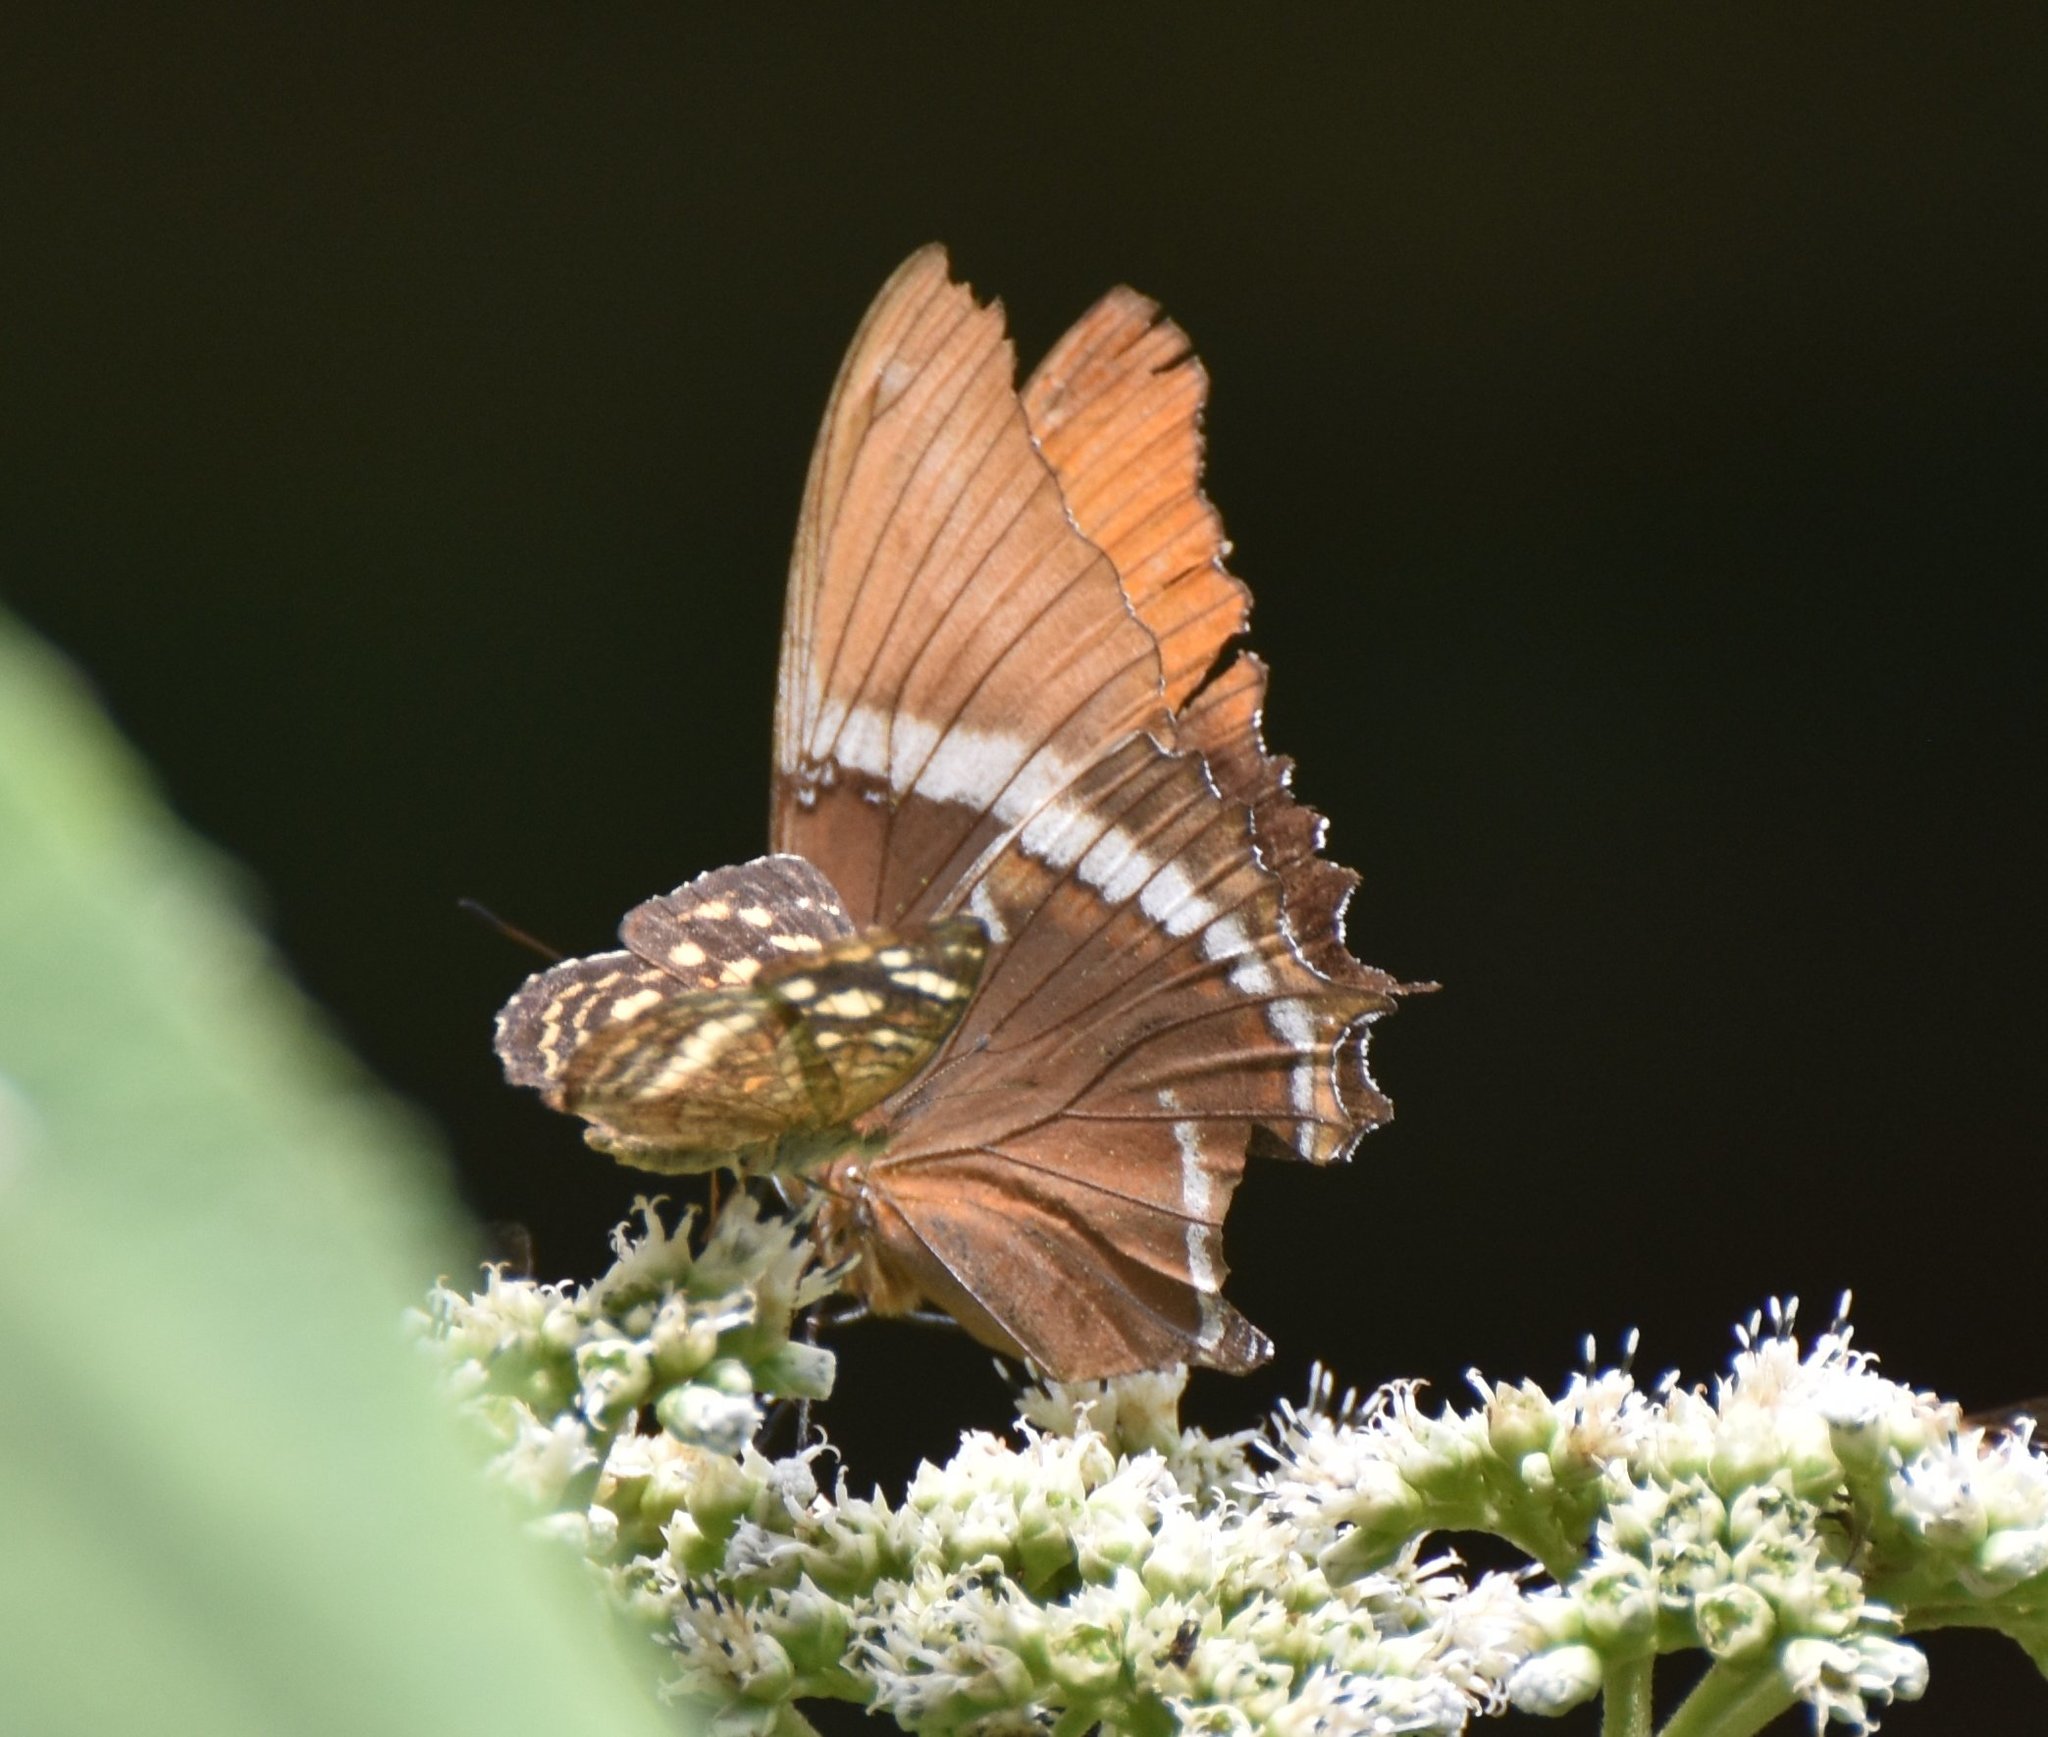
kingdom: Animalia
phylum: Arthropoda
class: Insecta
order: Lepidoptera
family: Nymphalidae
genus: Siproeta
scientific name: Siproeta epaphus
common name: Rusty-tipped page
